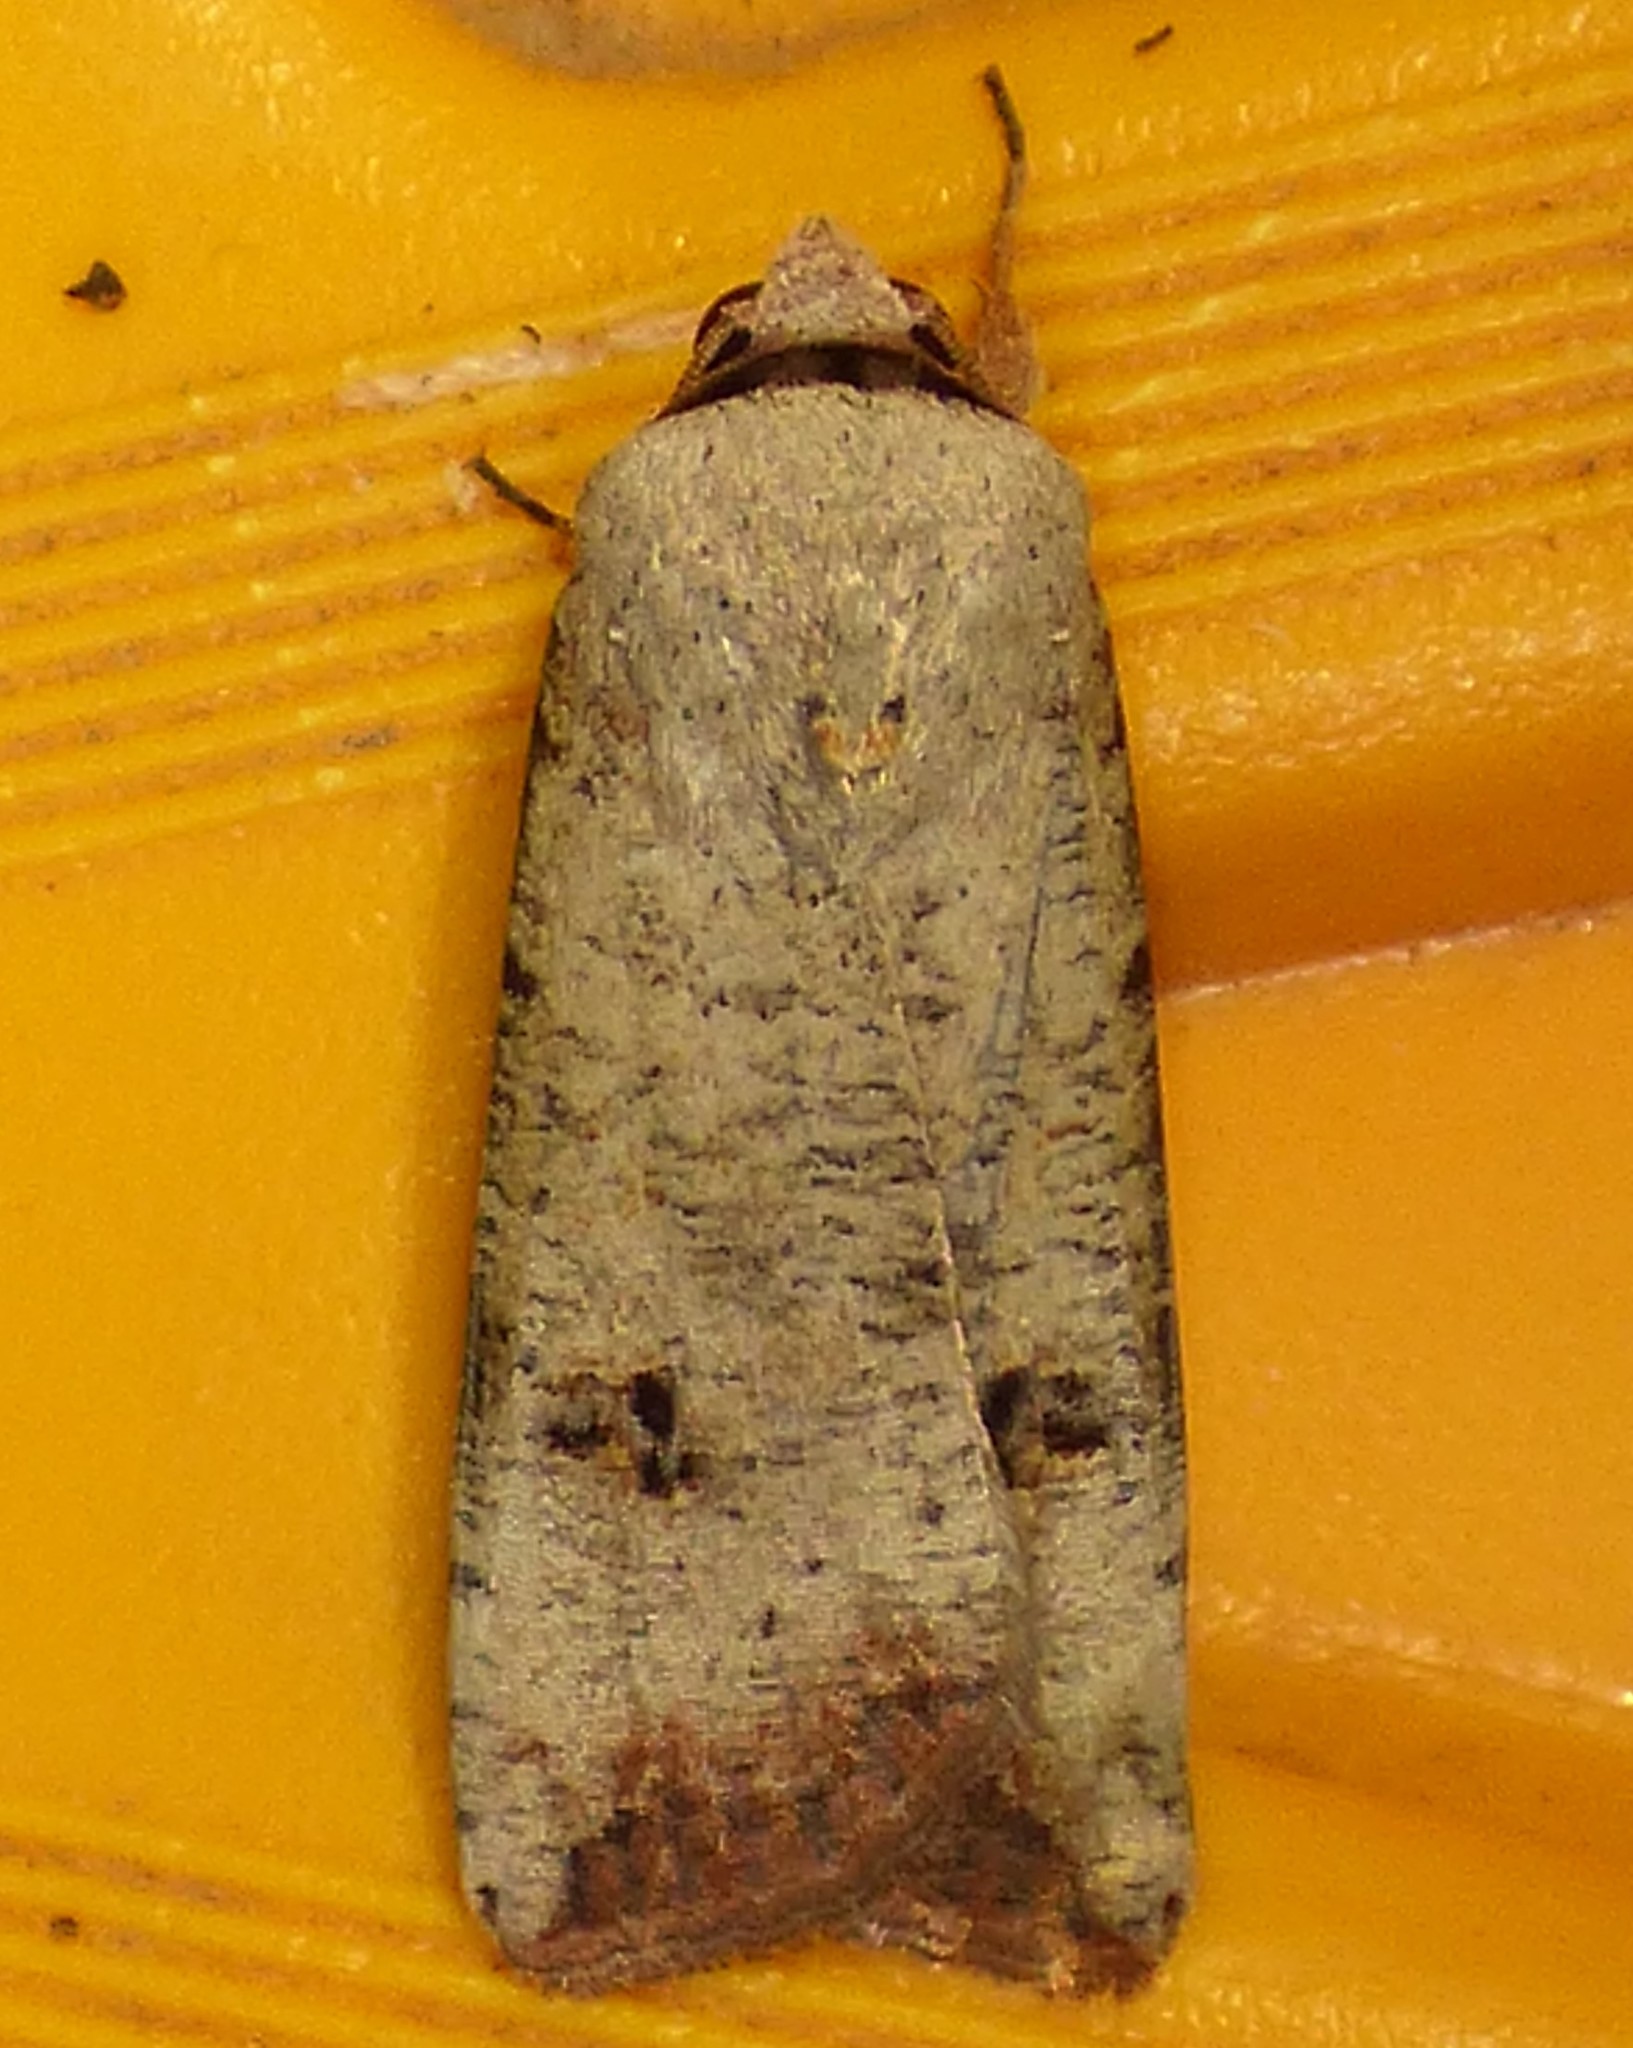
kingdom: Animalia
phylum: Arthropoda
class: Insecta
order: Lepidoptera
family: Noctuidae
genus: Anicla
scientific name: Anicla infecta
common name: Green cutworm
